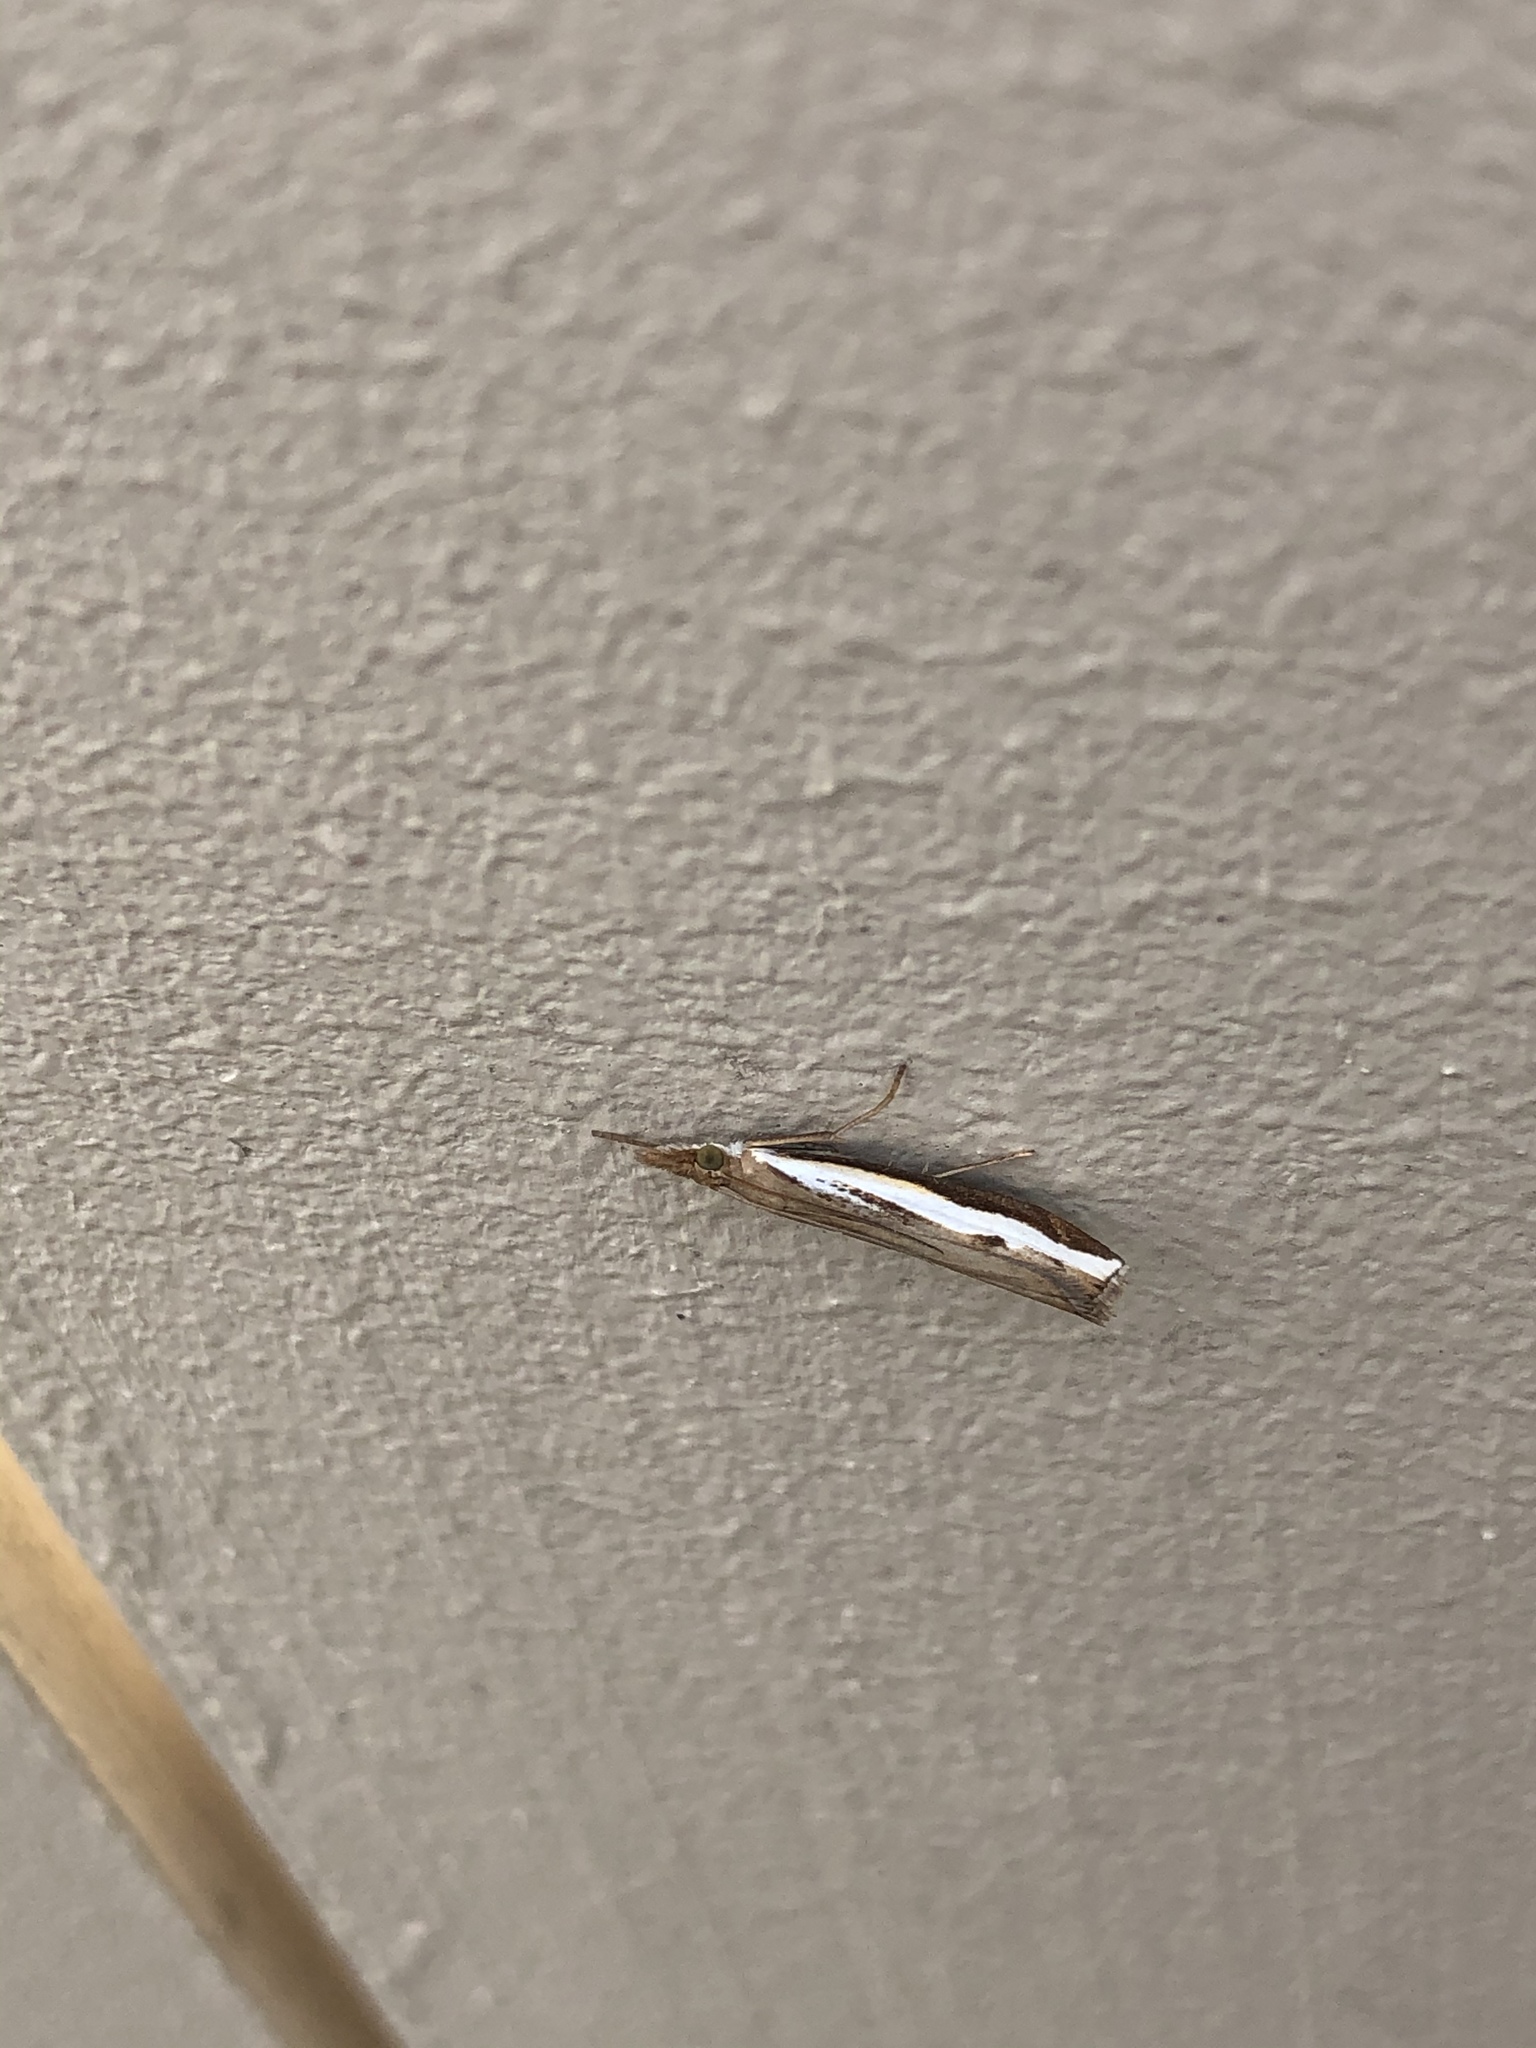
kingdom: Animalia
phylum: Arthropoda
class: Insecta
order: Lepidoptera
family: Crambidae
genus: Orocrambus
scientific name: Orocrambus flexuosellus
